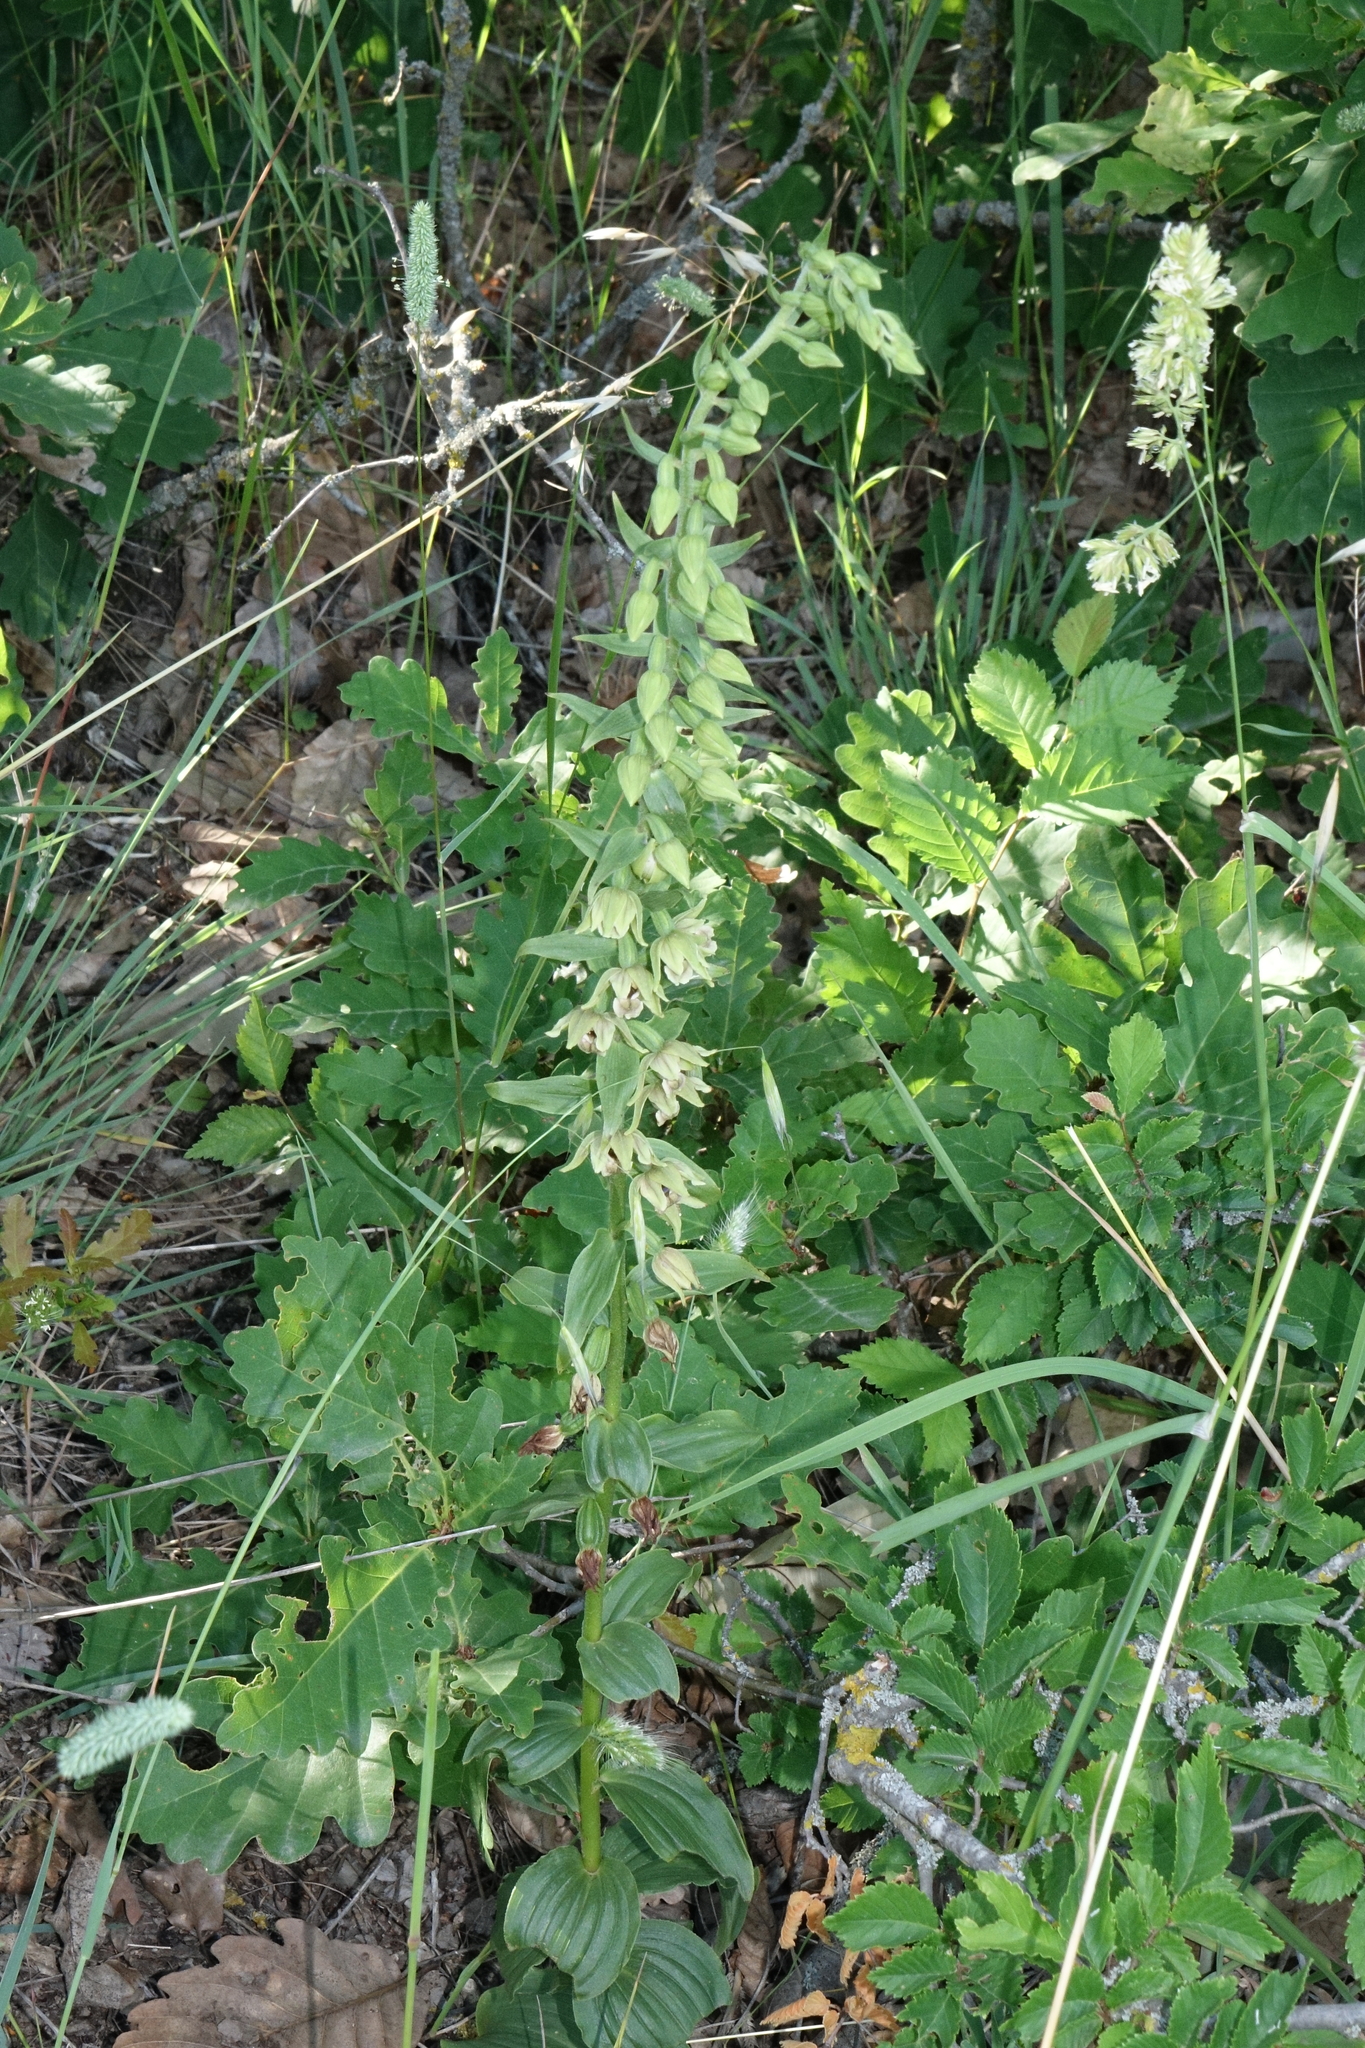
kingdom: Plantae
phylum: Tracheophyta
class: Liliopsida
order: Asparagales
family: Orchidaceae
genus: Epipactis
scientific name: Epipactis helleborine
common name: Broad-leaved helleborine
